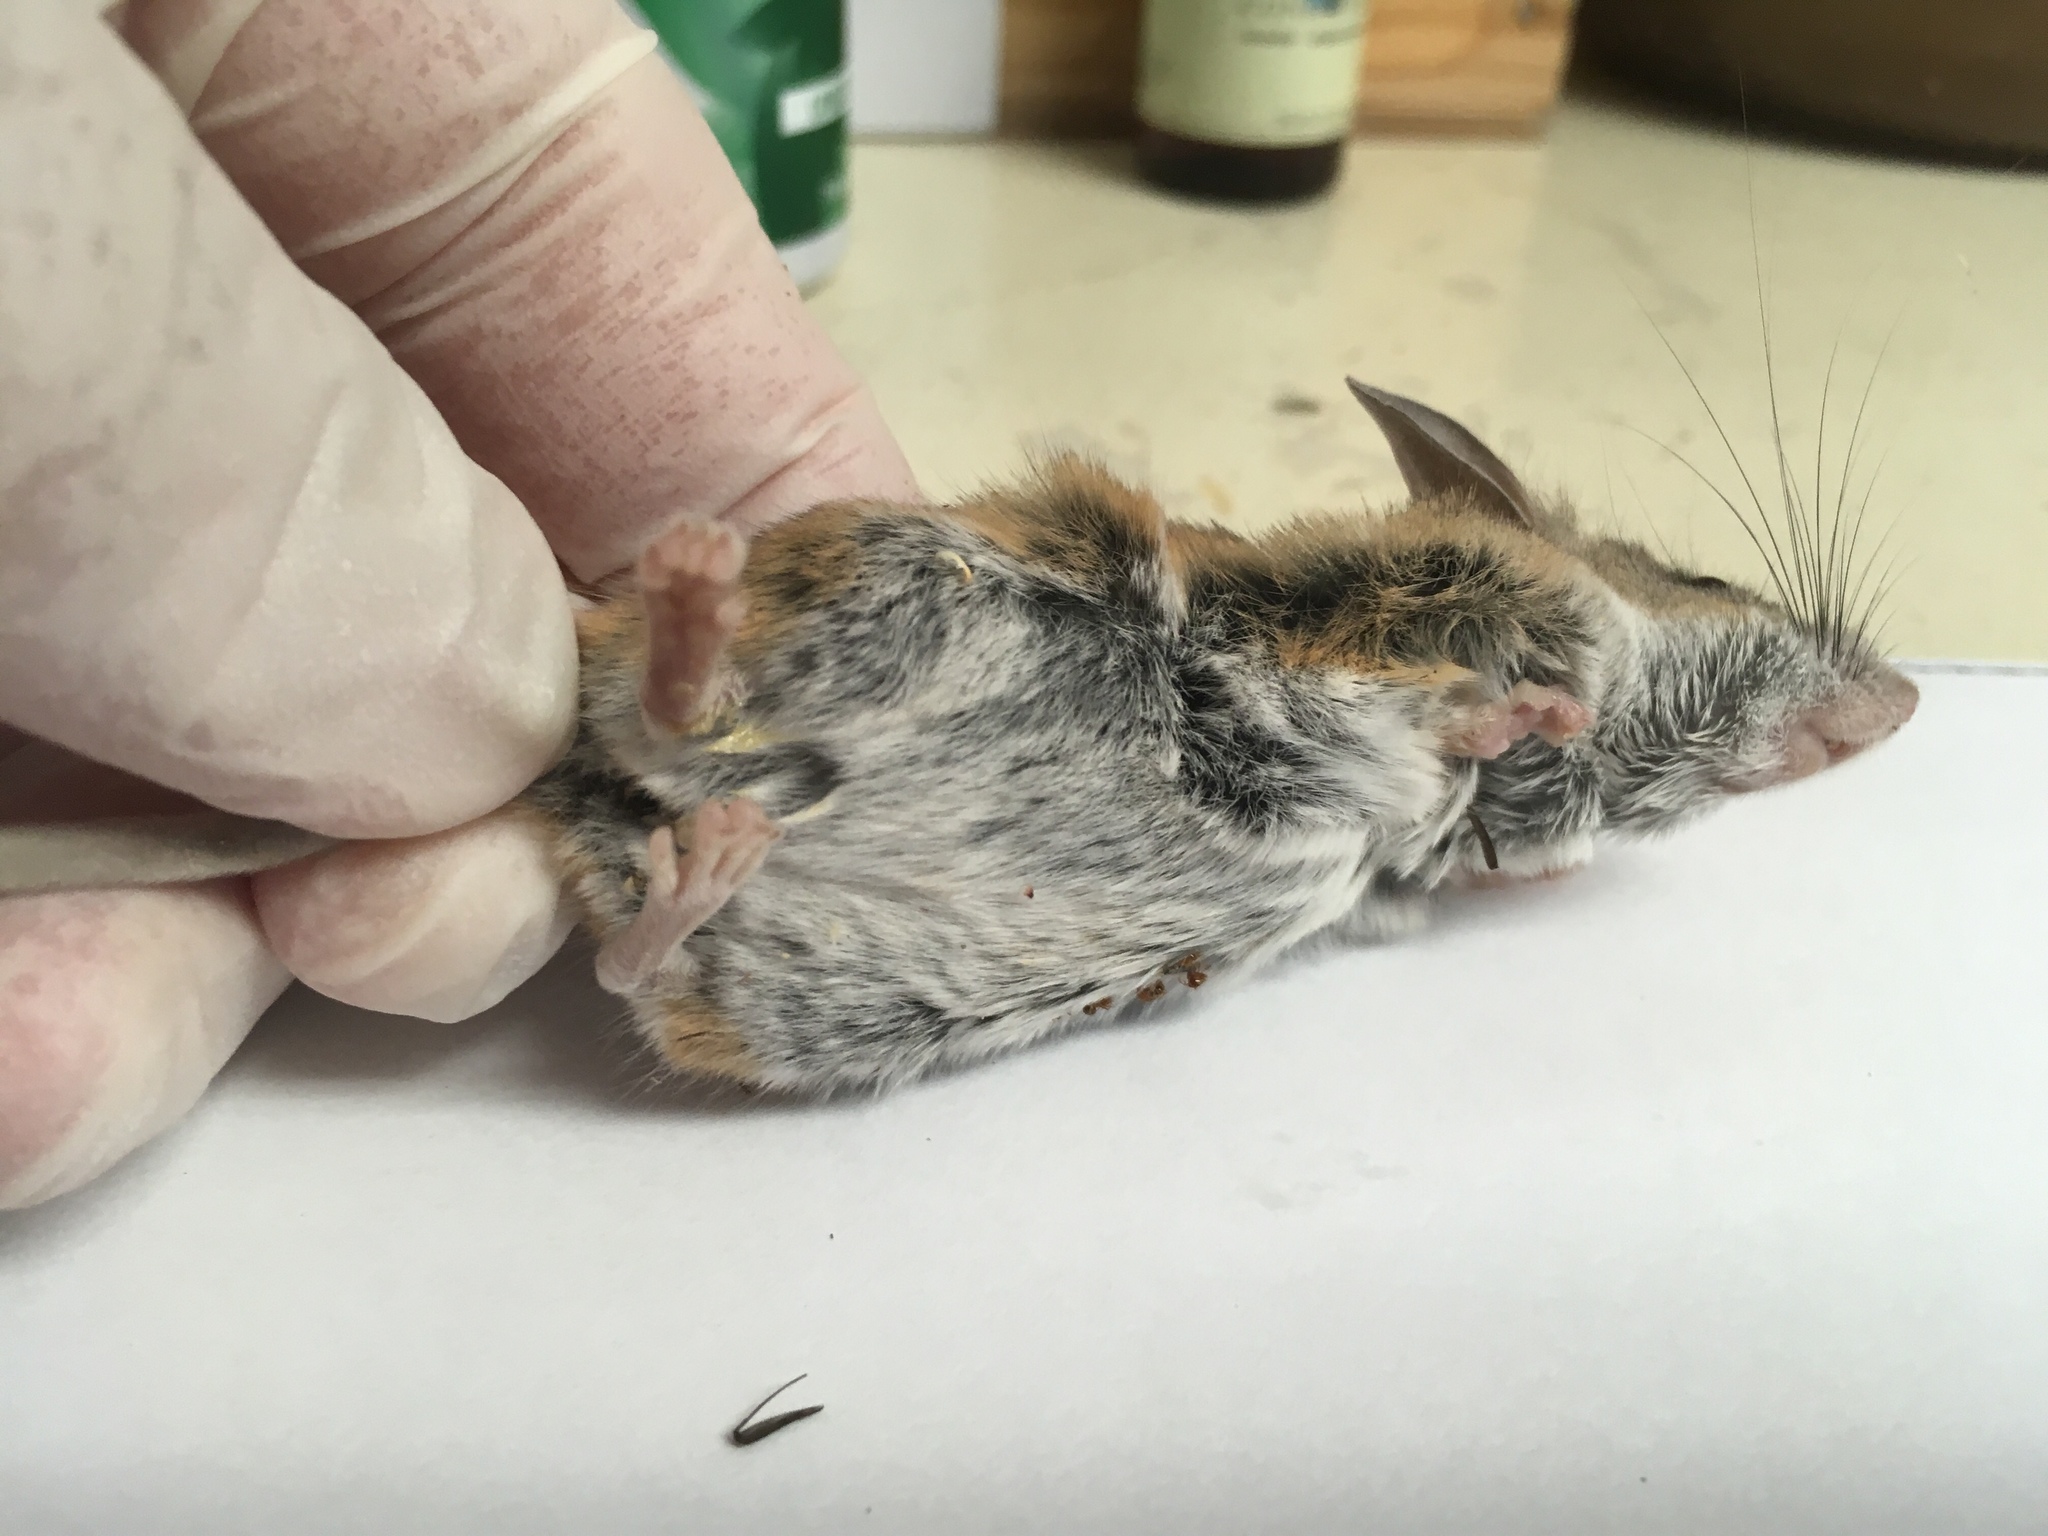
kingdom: Animalia
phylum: Chordata
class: Mammalia
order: Rodentia
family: Cricetidae
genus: Peromyscus
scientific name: Peromyscus eremicus
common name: Cactus deermouse
